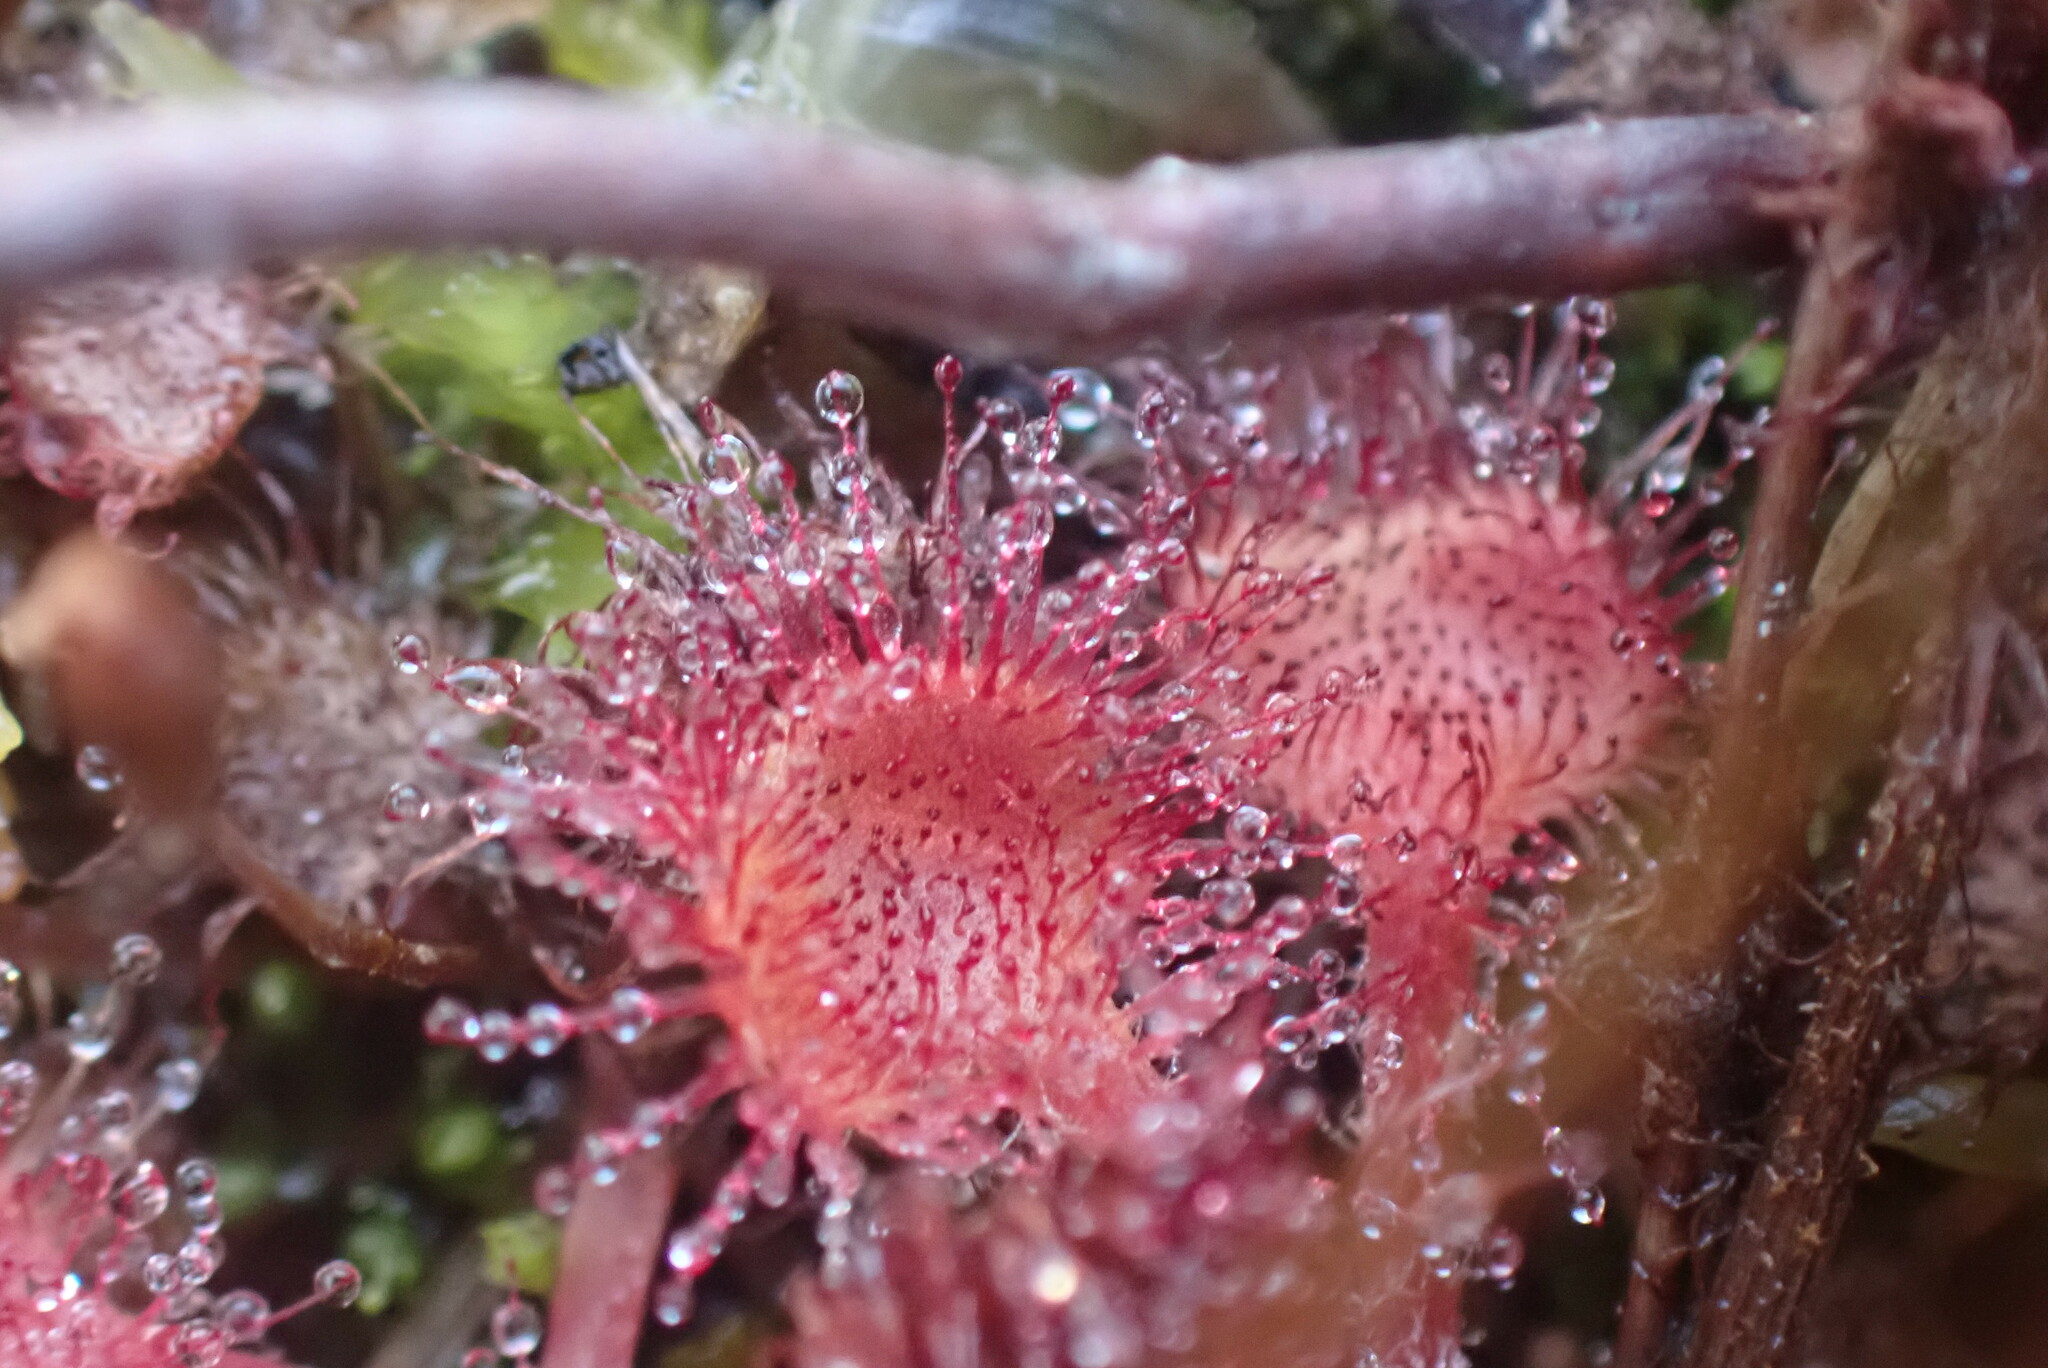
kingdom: Plantae
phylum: Tracheophyta
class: Magnoliopsida
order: Caryophyllales
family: Droseraceae
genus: Drosera
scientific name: Drosera rotundifolia
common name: Round-leaved sundew
